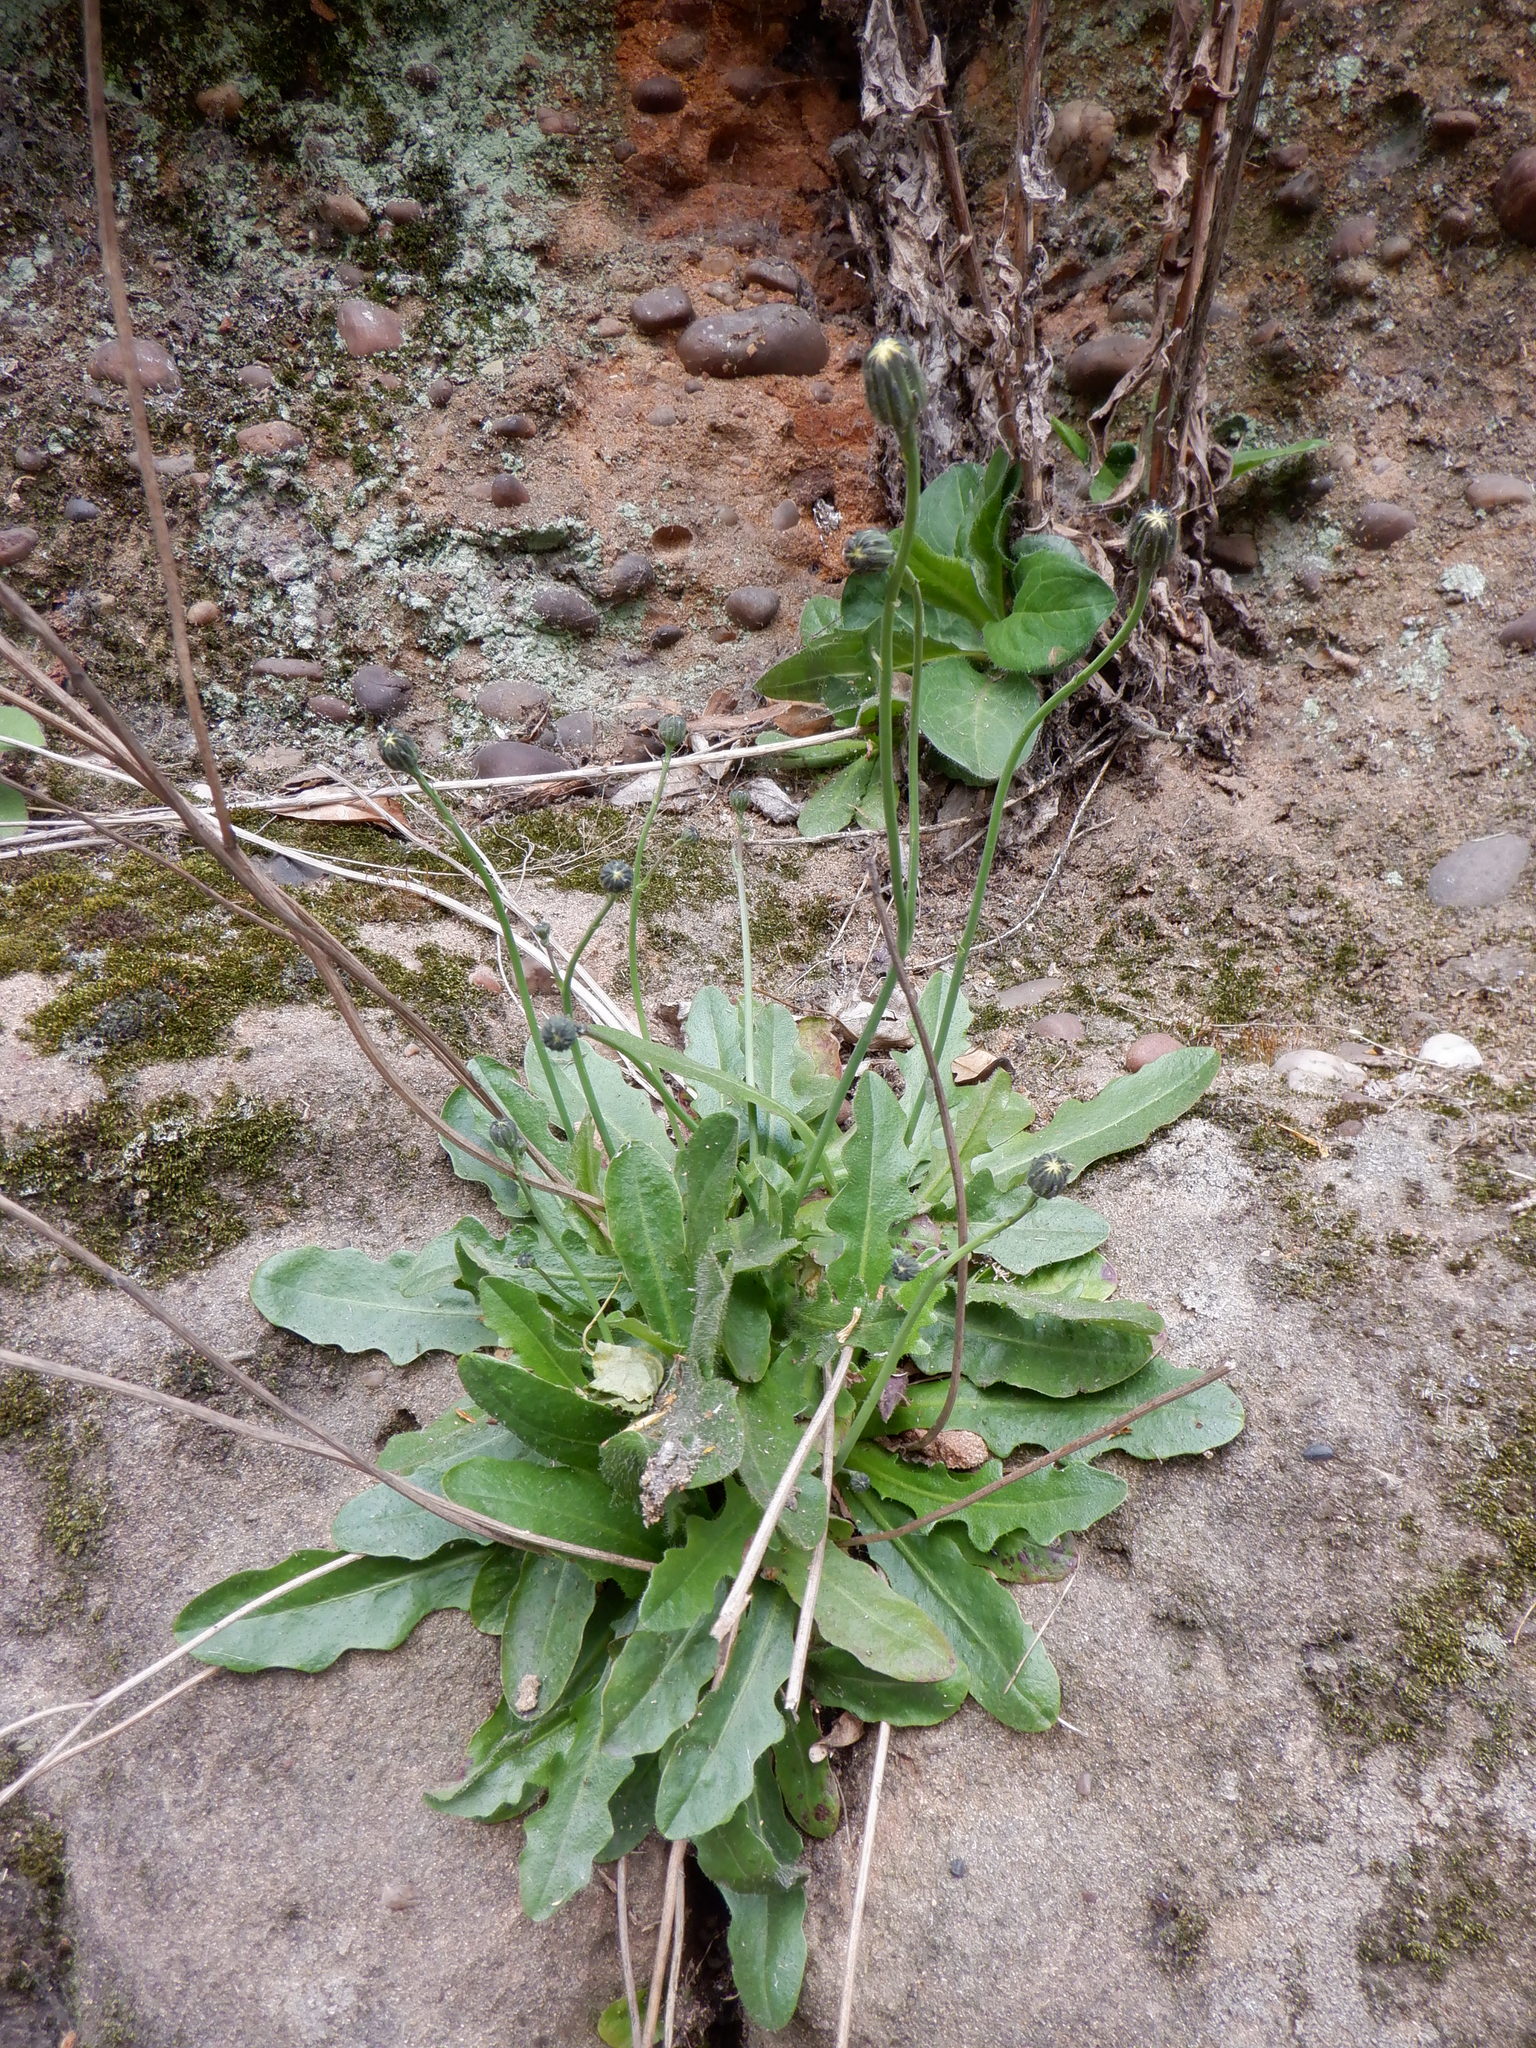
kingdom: Plantae
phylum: Tracheophyta
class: Magnoliopsida
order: Asterales
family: Asteraceae
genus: Hypochaeris
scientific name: Hypochaeris radicata
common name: Flatweed
